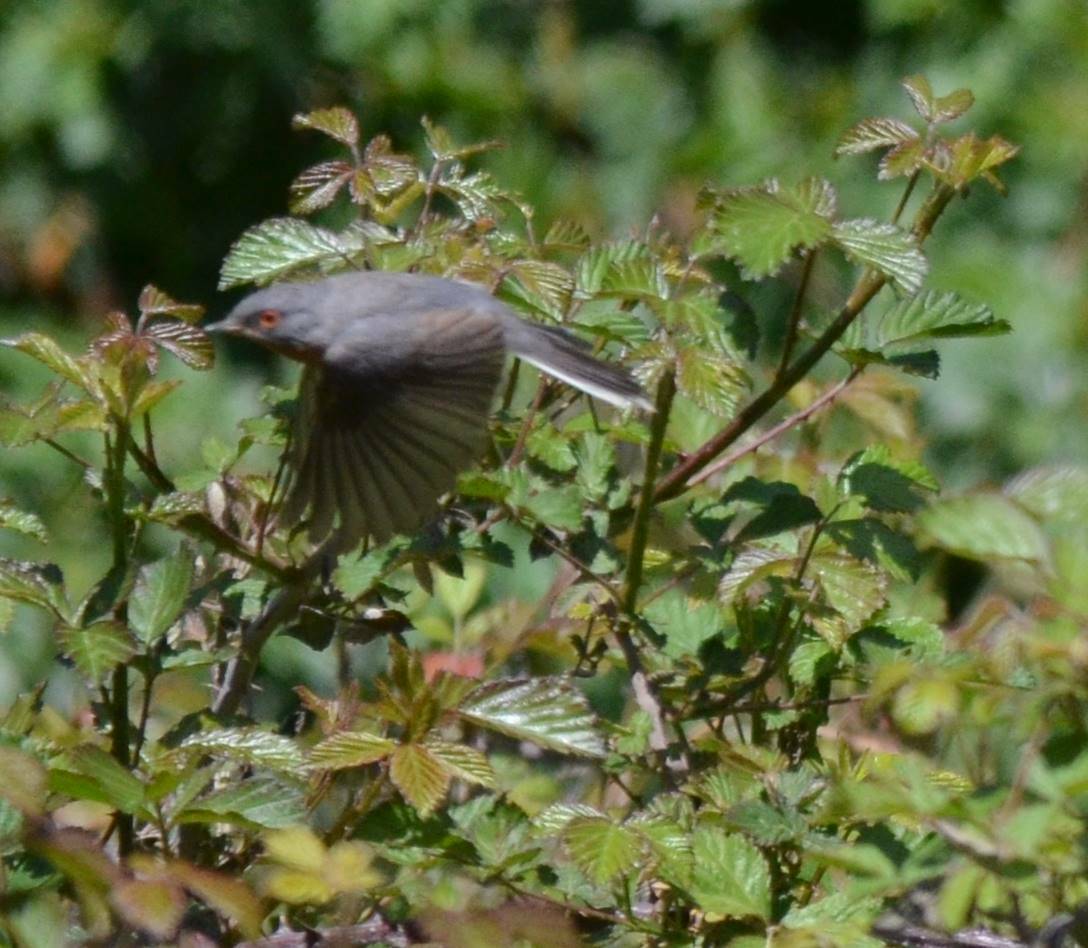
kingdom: Animalia
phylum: Chordata
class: Aves
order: Passeriformes
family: Sylviidae
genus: Curruca
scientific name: Curruca iberiae
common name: Western subalpine warbler
